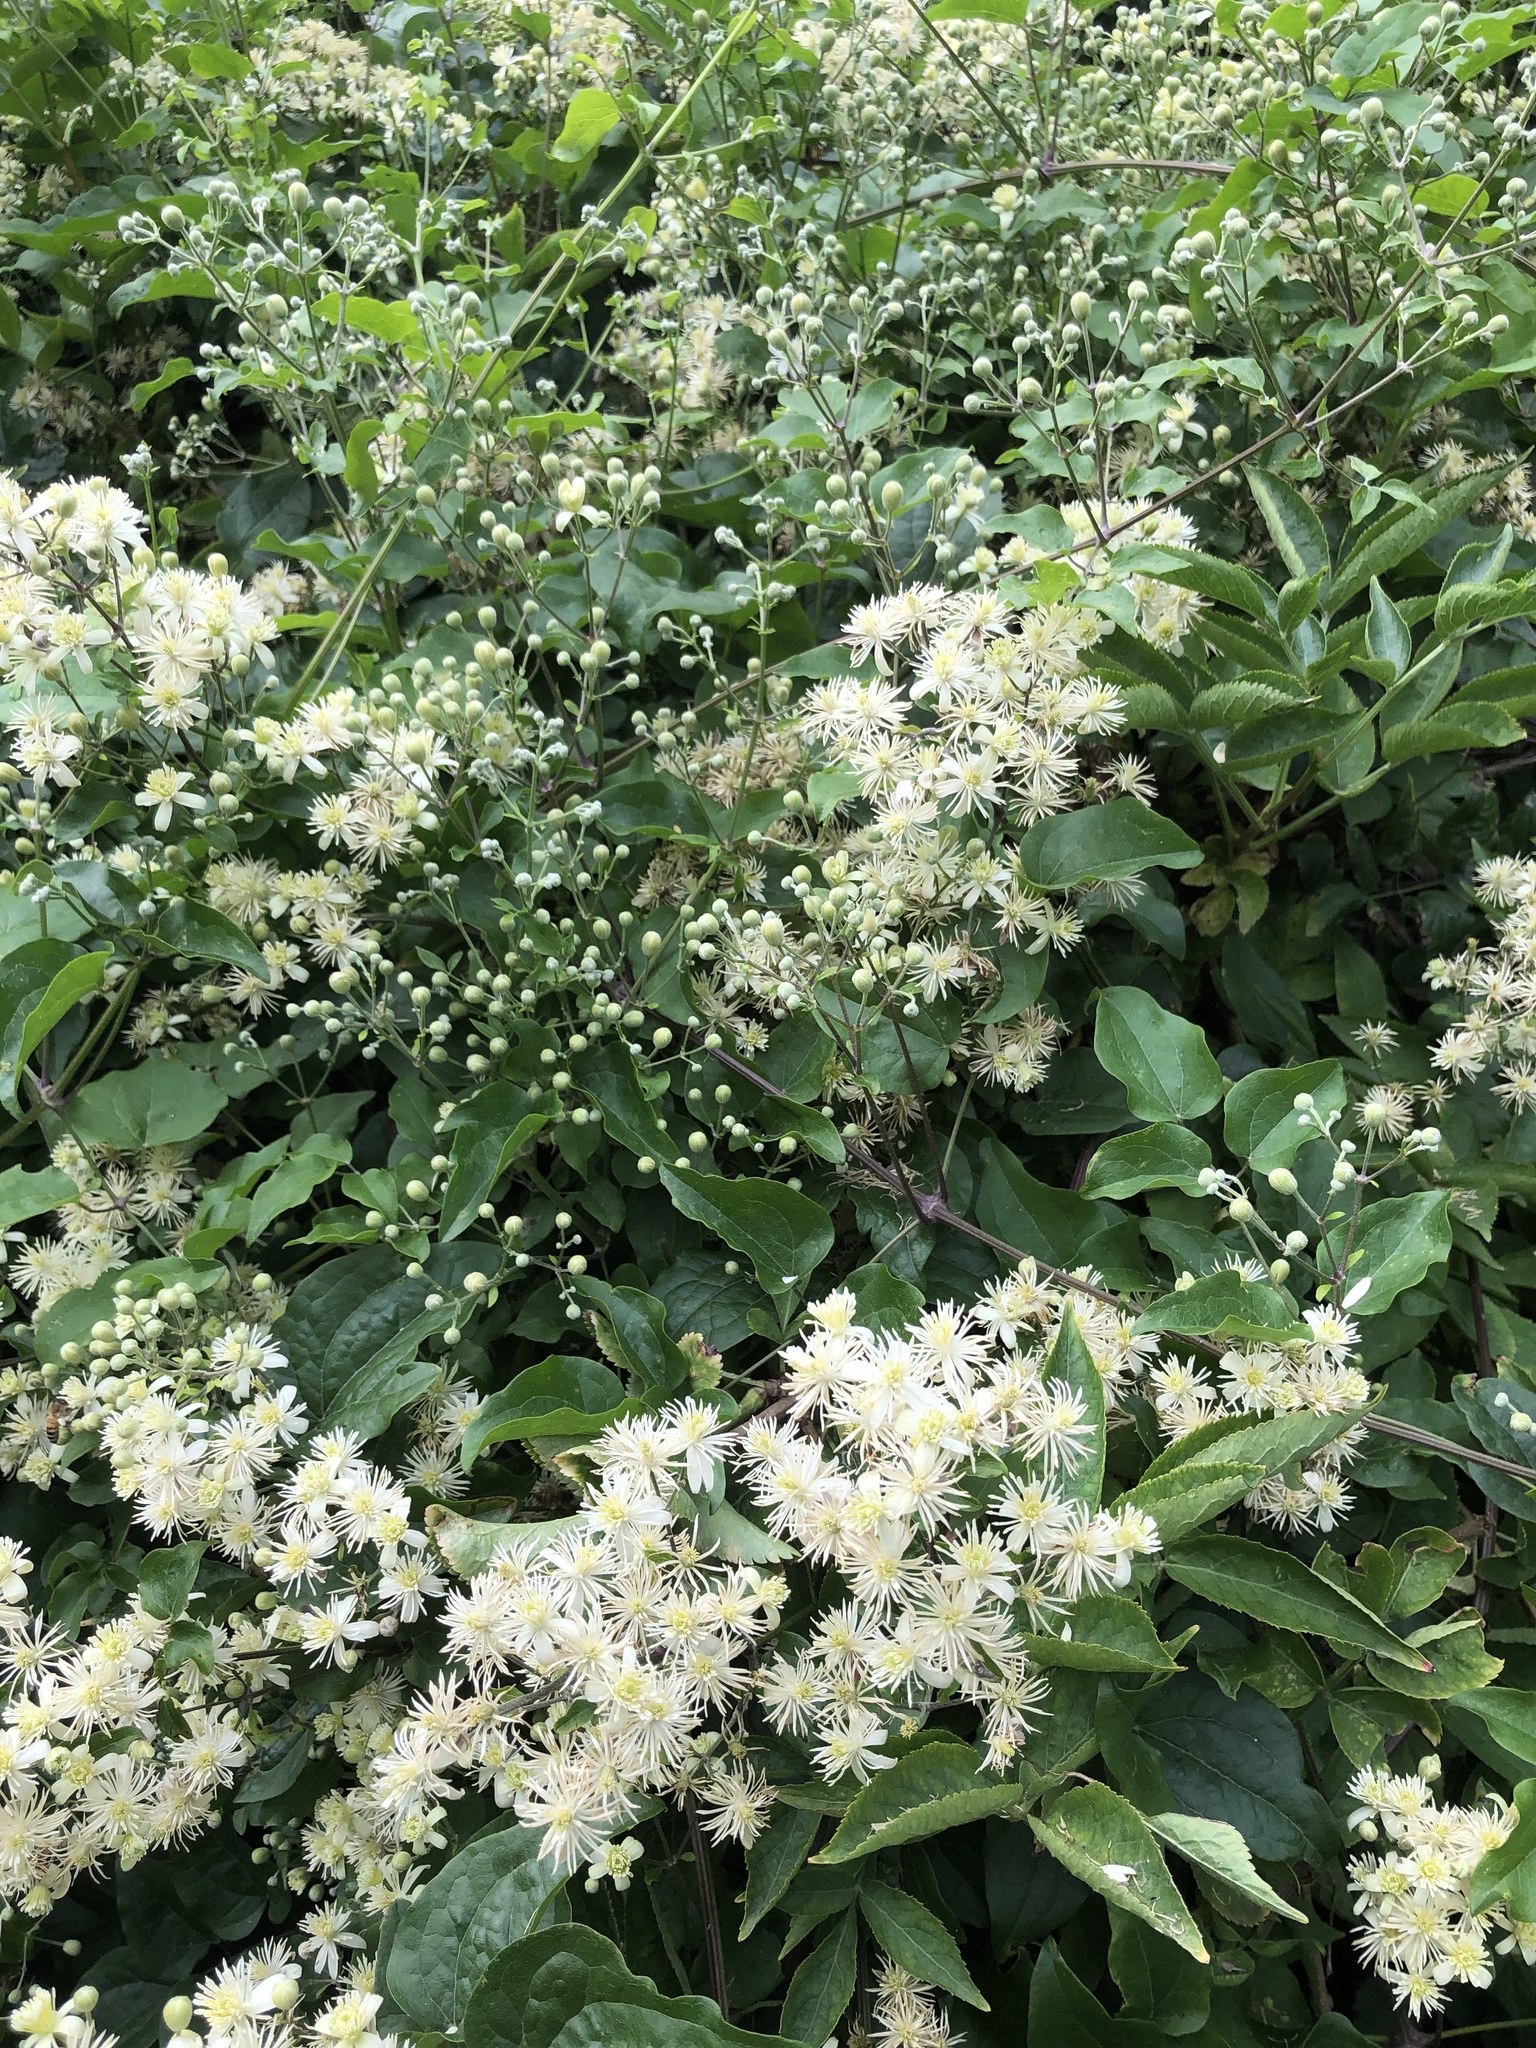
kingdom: Plantae
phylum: Tracheophyta
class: Magnoliopsida
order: Ranunculales
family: Ranunculaceae
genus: Clematis
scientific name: Clematis vitalba
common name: Evergreen clematis
